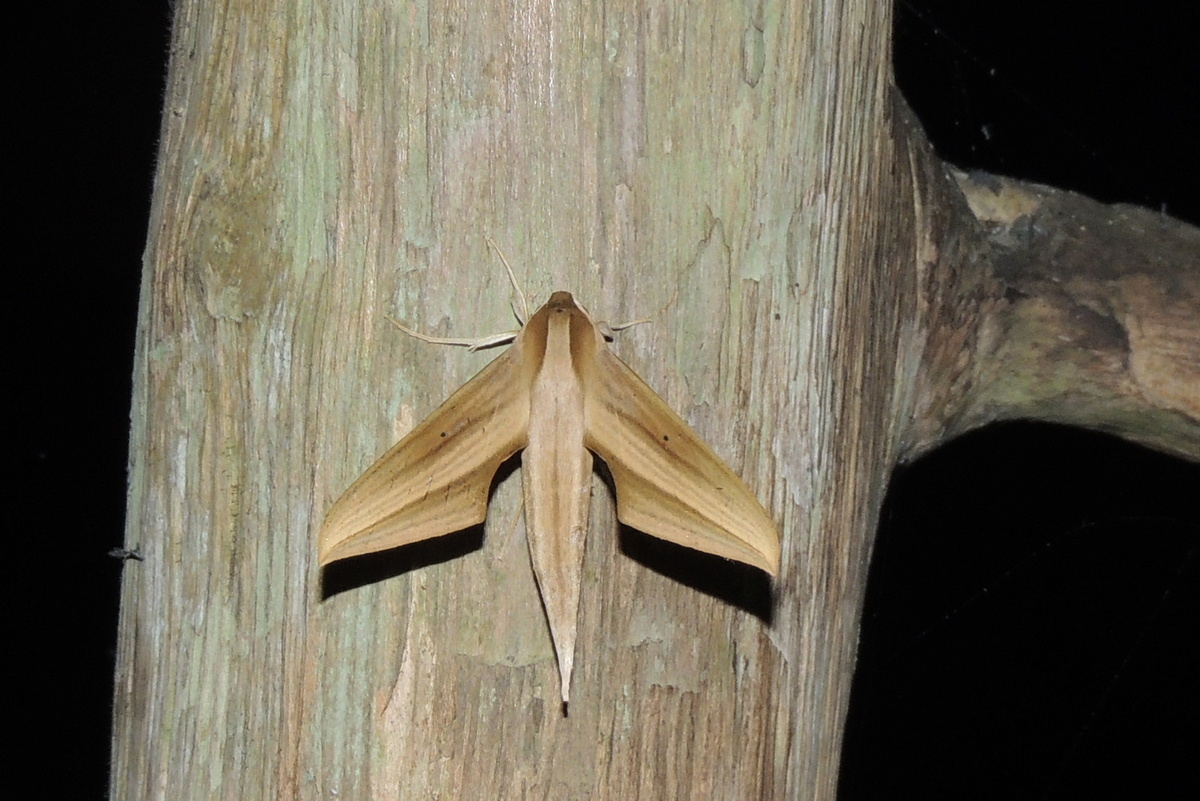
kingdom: Animalia
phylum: Arthropoda
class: Insecta
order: Lepidoptera
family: Sphingidae
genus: Xylophanes
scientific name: Xylophanes tersa
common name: Tersa sphinx
